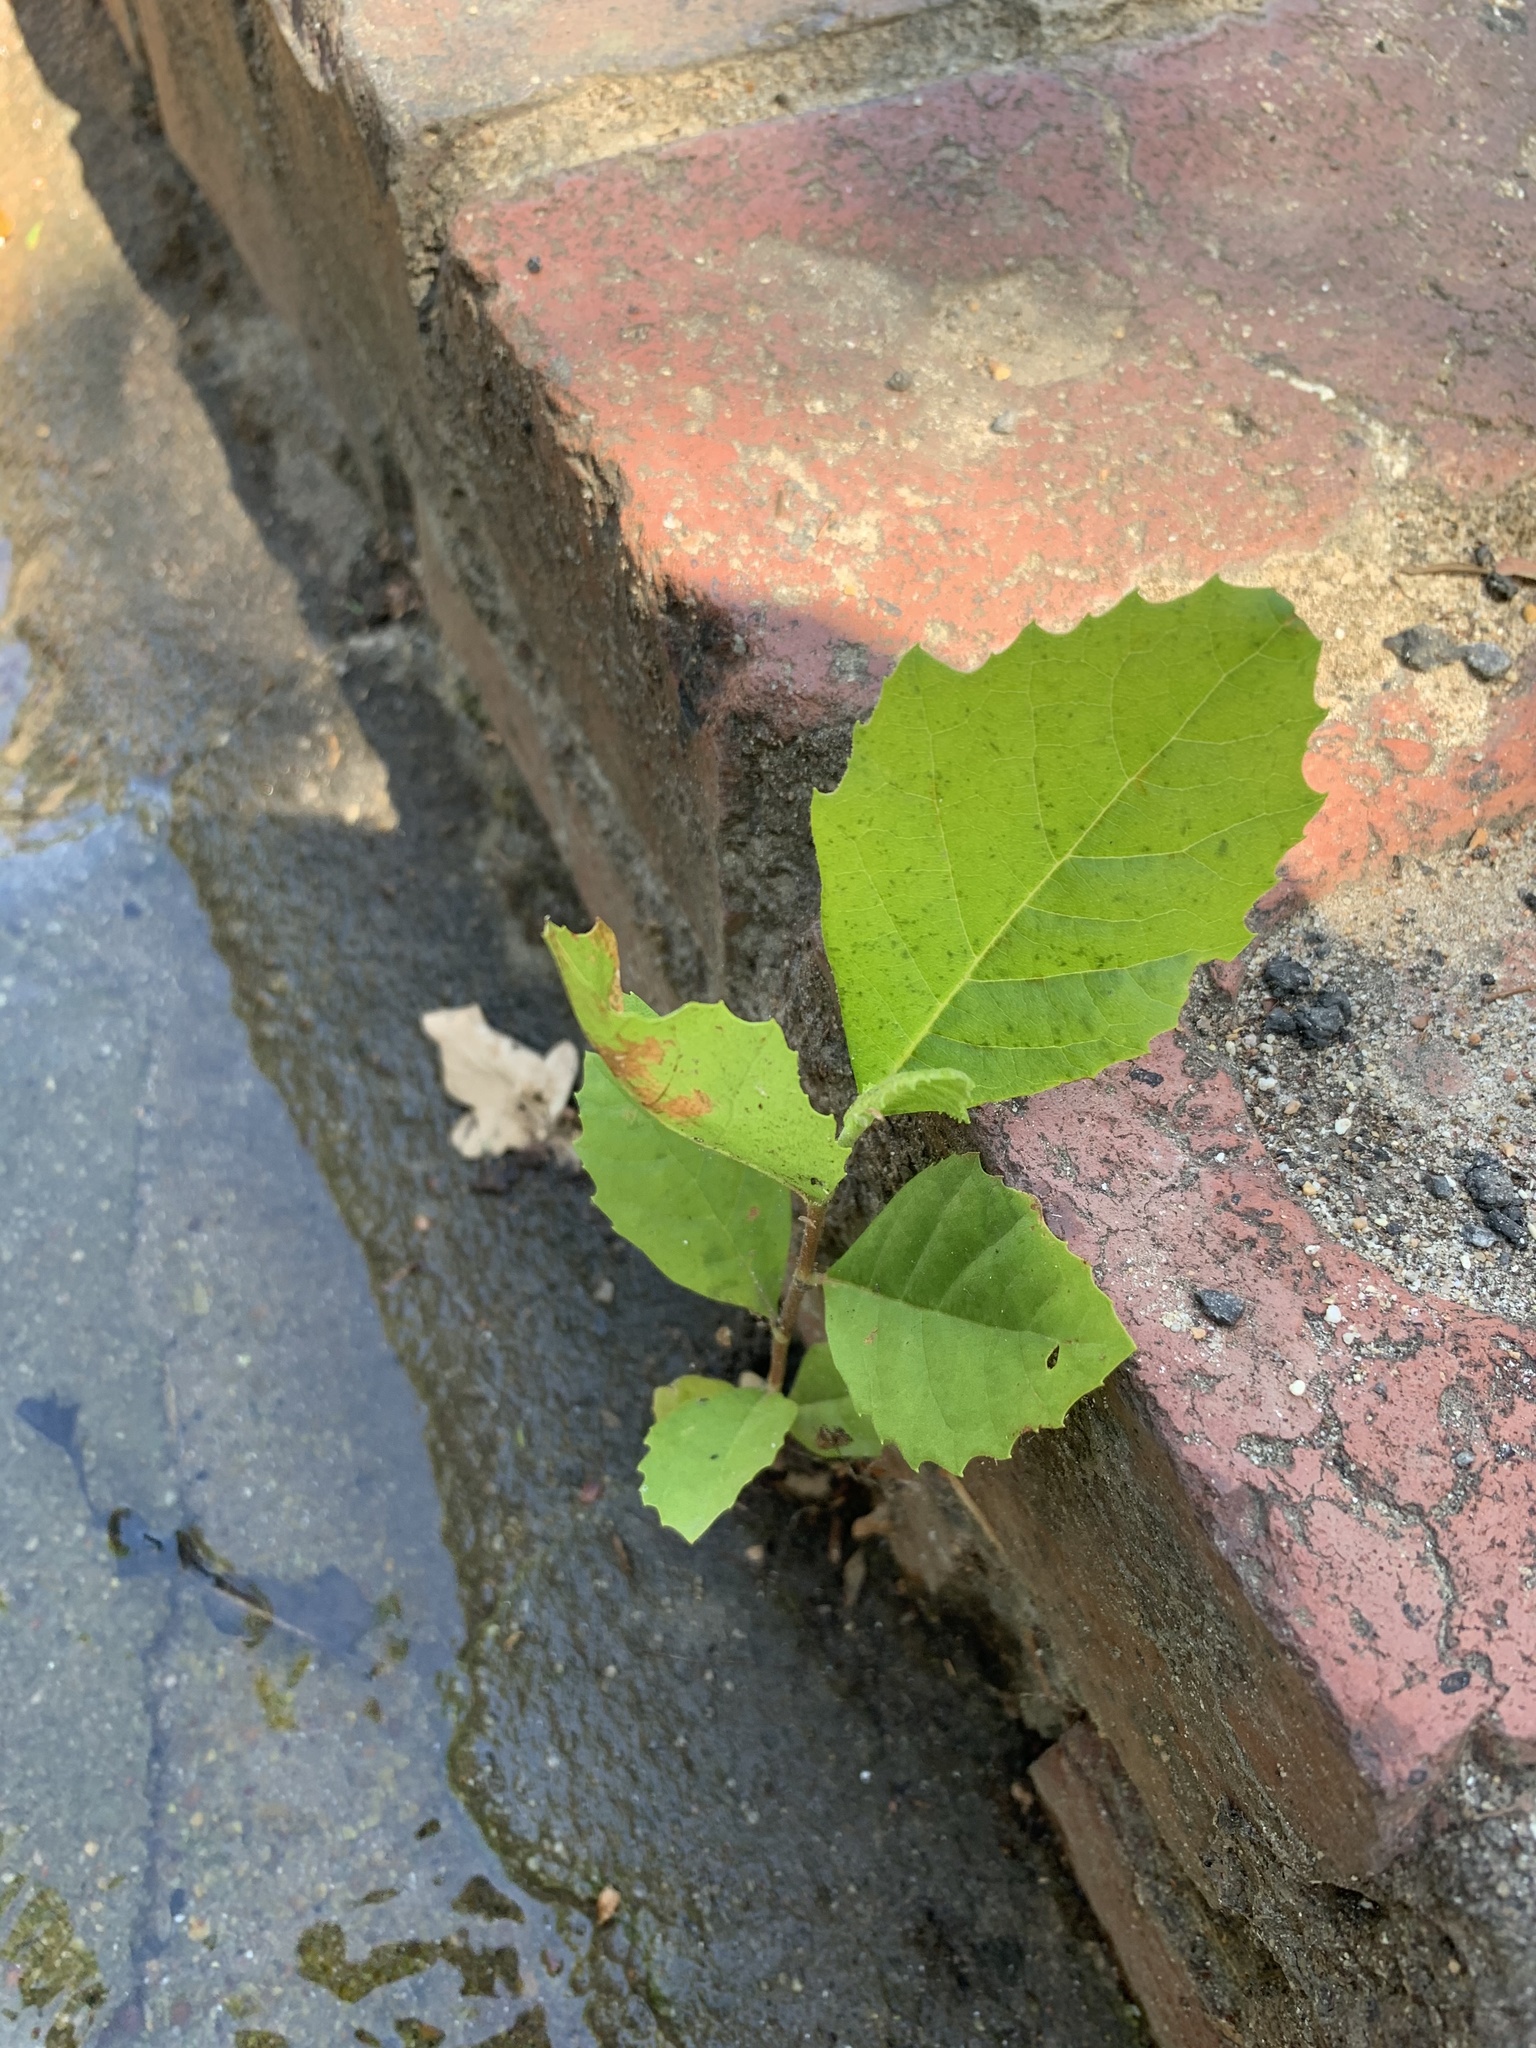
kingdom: Plantae
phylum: Tracheophyta
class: Magnoliopsida
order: Proteales
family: Platanaceae
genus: Platanus
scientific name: Platanus hispanica
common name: London plane
